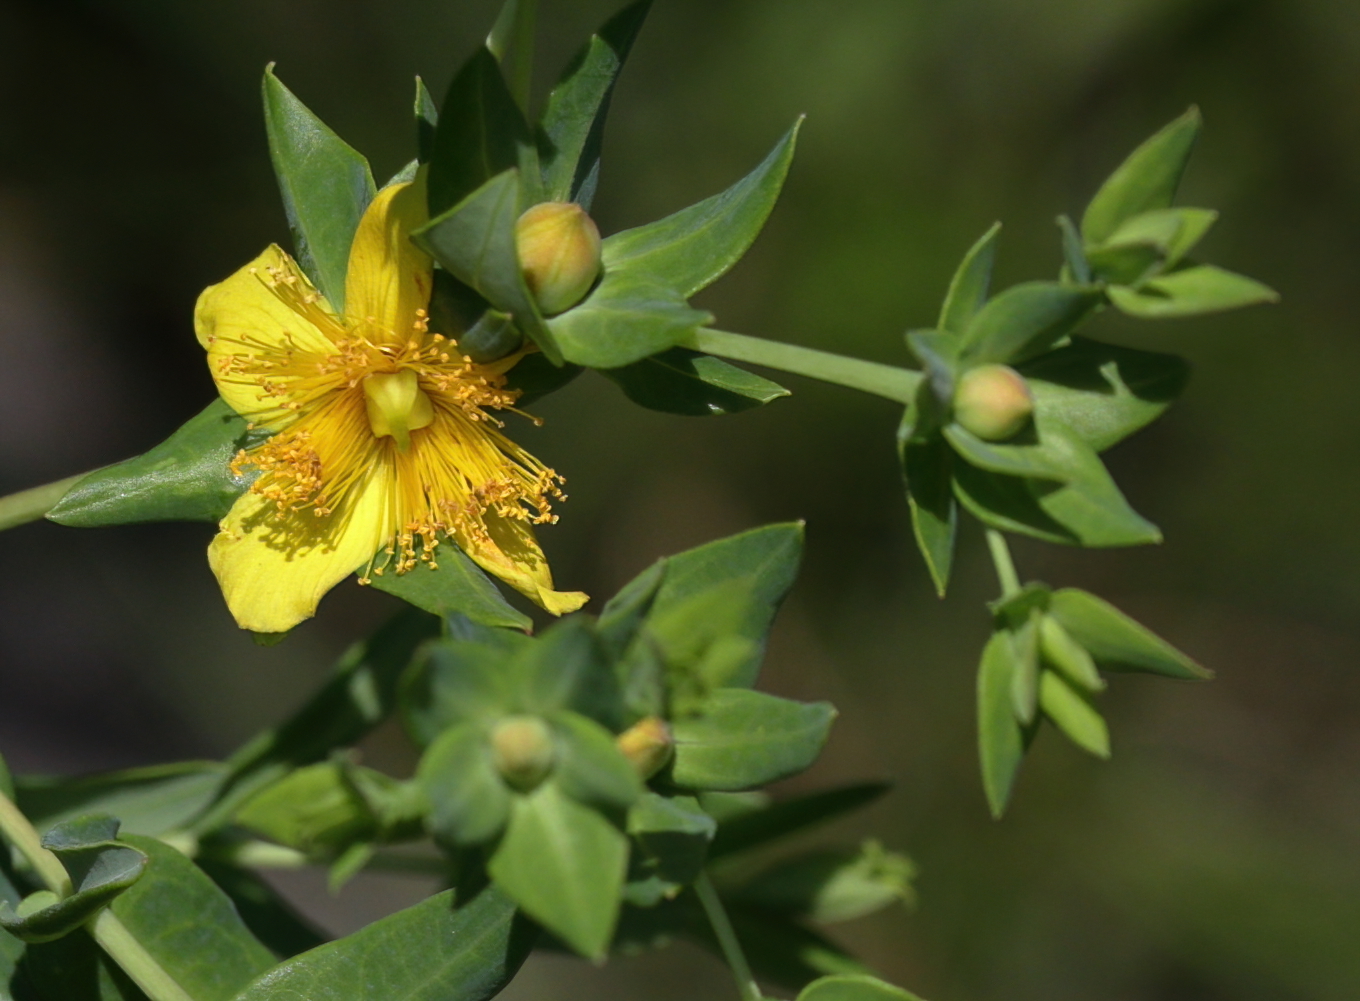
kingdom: Plantae
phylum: Tracheophyta
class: Magnoliopsida
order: Malpighiales
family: Hypericaceae
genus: Hypericum
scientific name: Hypericum myrtifolium
